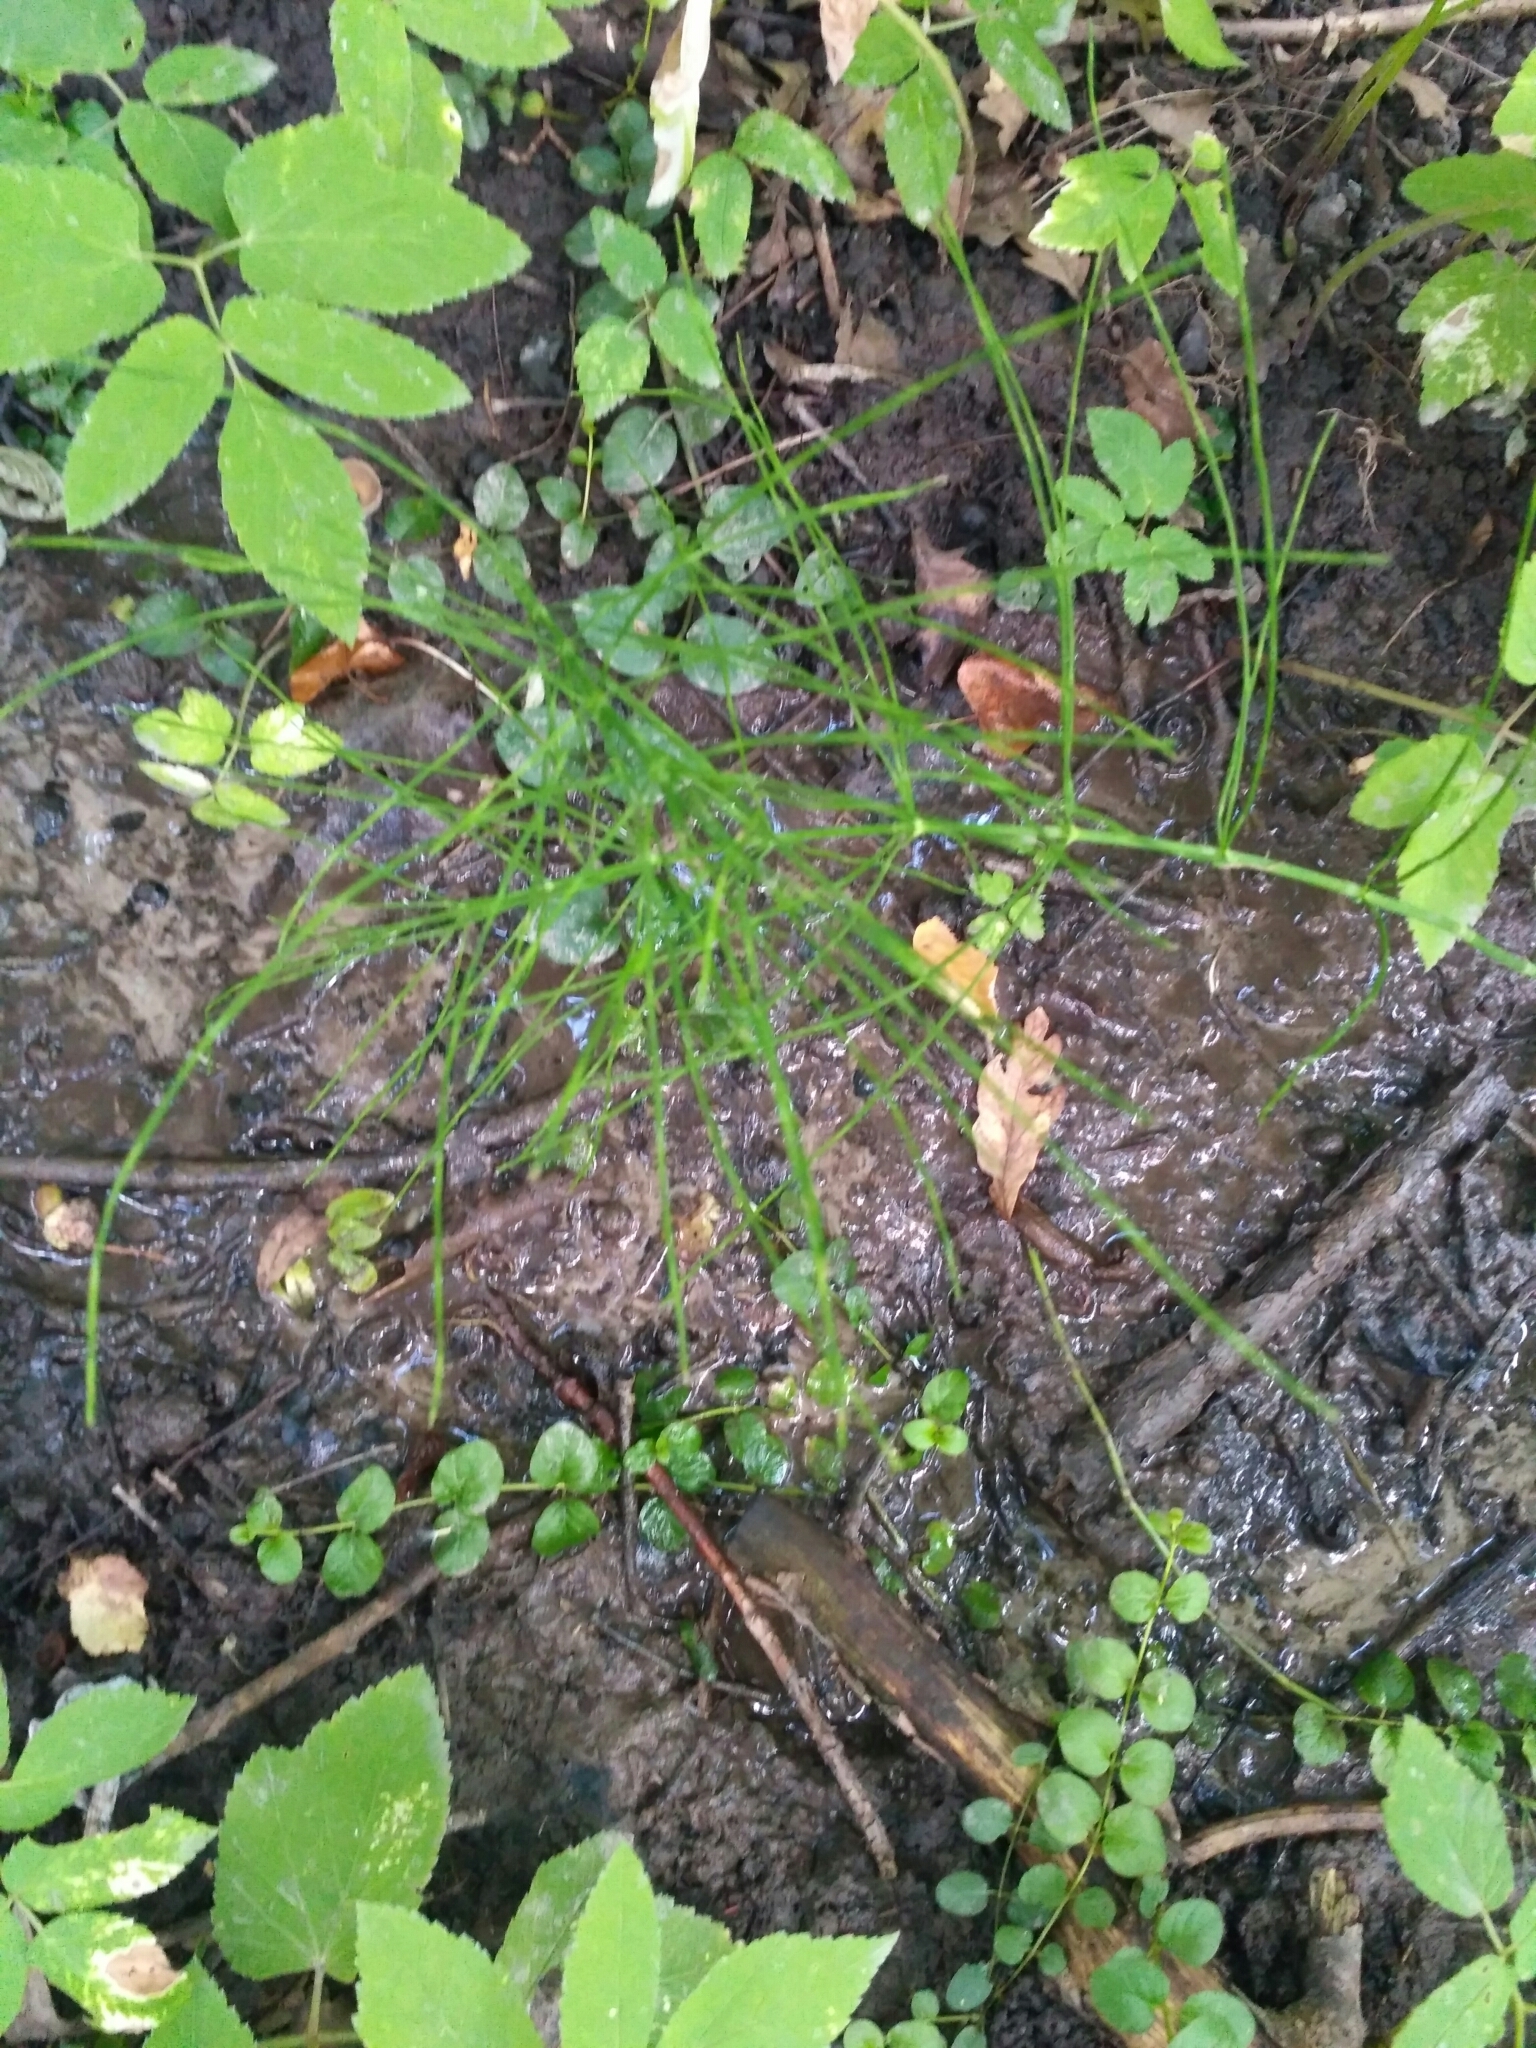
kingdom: Plantae
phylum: Tracheophyta
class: Polypodiopsida
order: Equisetales
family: Equisetaceae
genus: Equisetum
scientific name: Equisetum arvense
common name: Field horsetail
